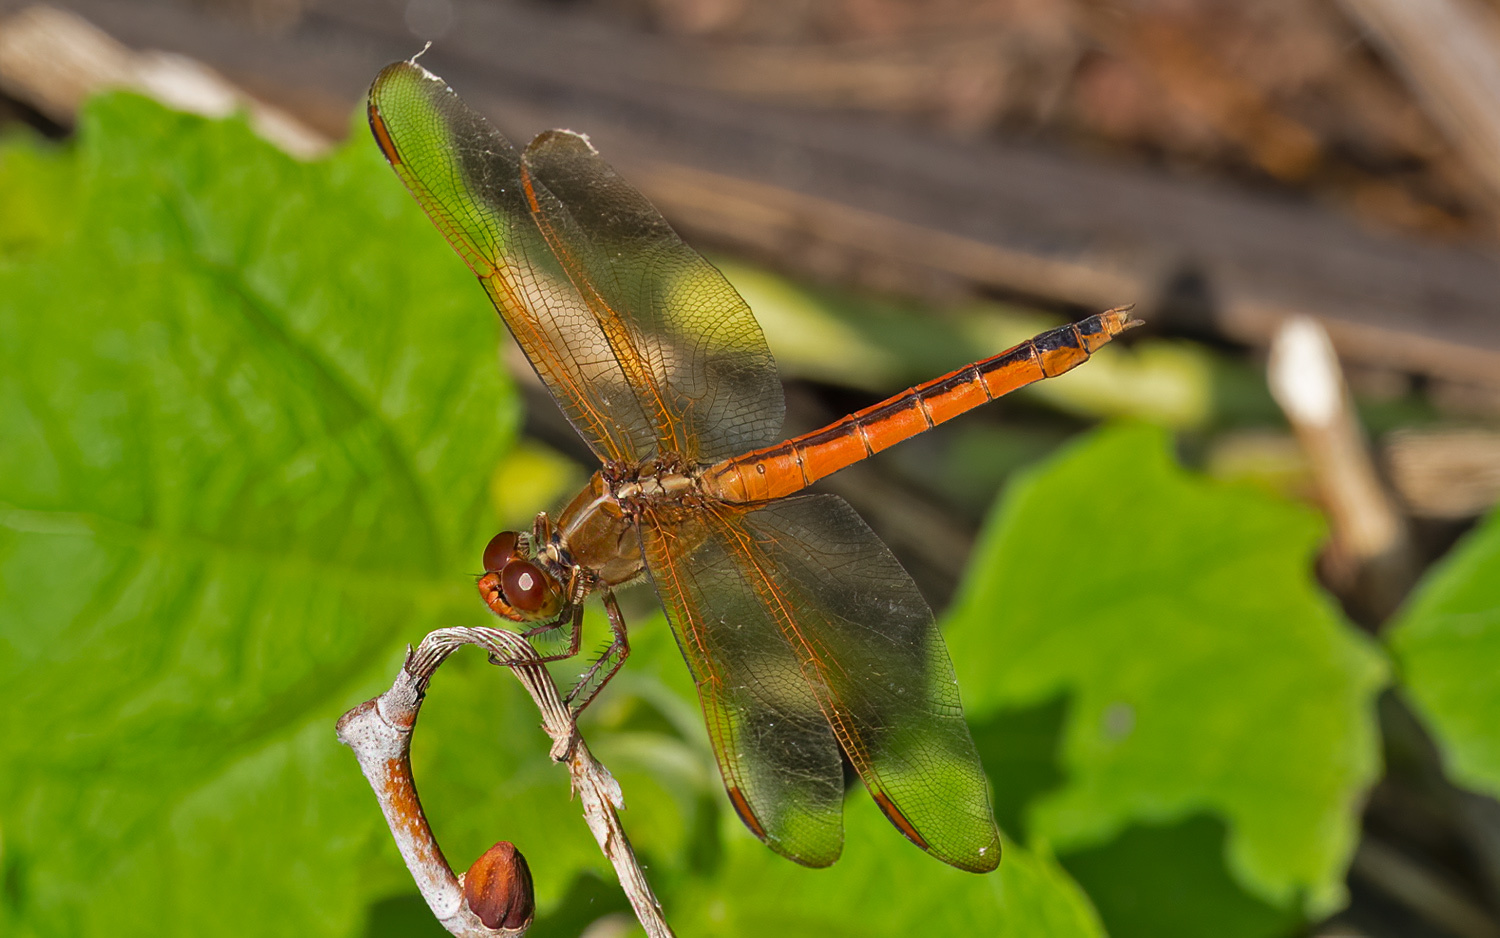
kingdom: Animalia
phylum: Arthropoda
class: Insecta
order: Odonata
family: Libellulidae
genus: Libellula
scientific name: Libellula needhami
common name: Needham's skimmer
